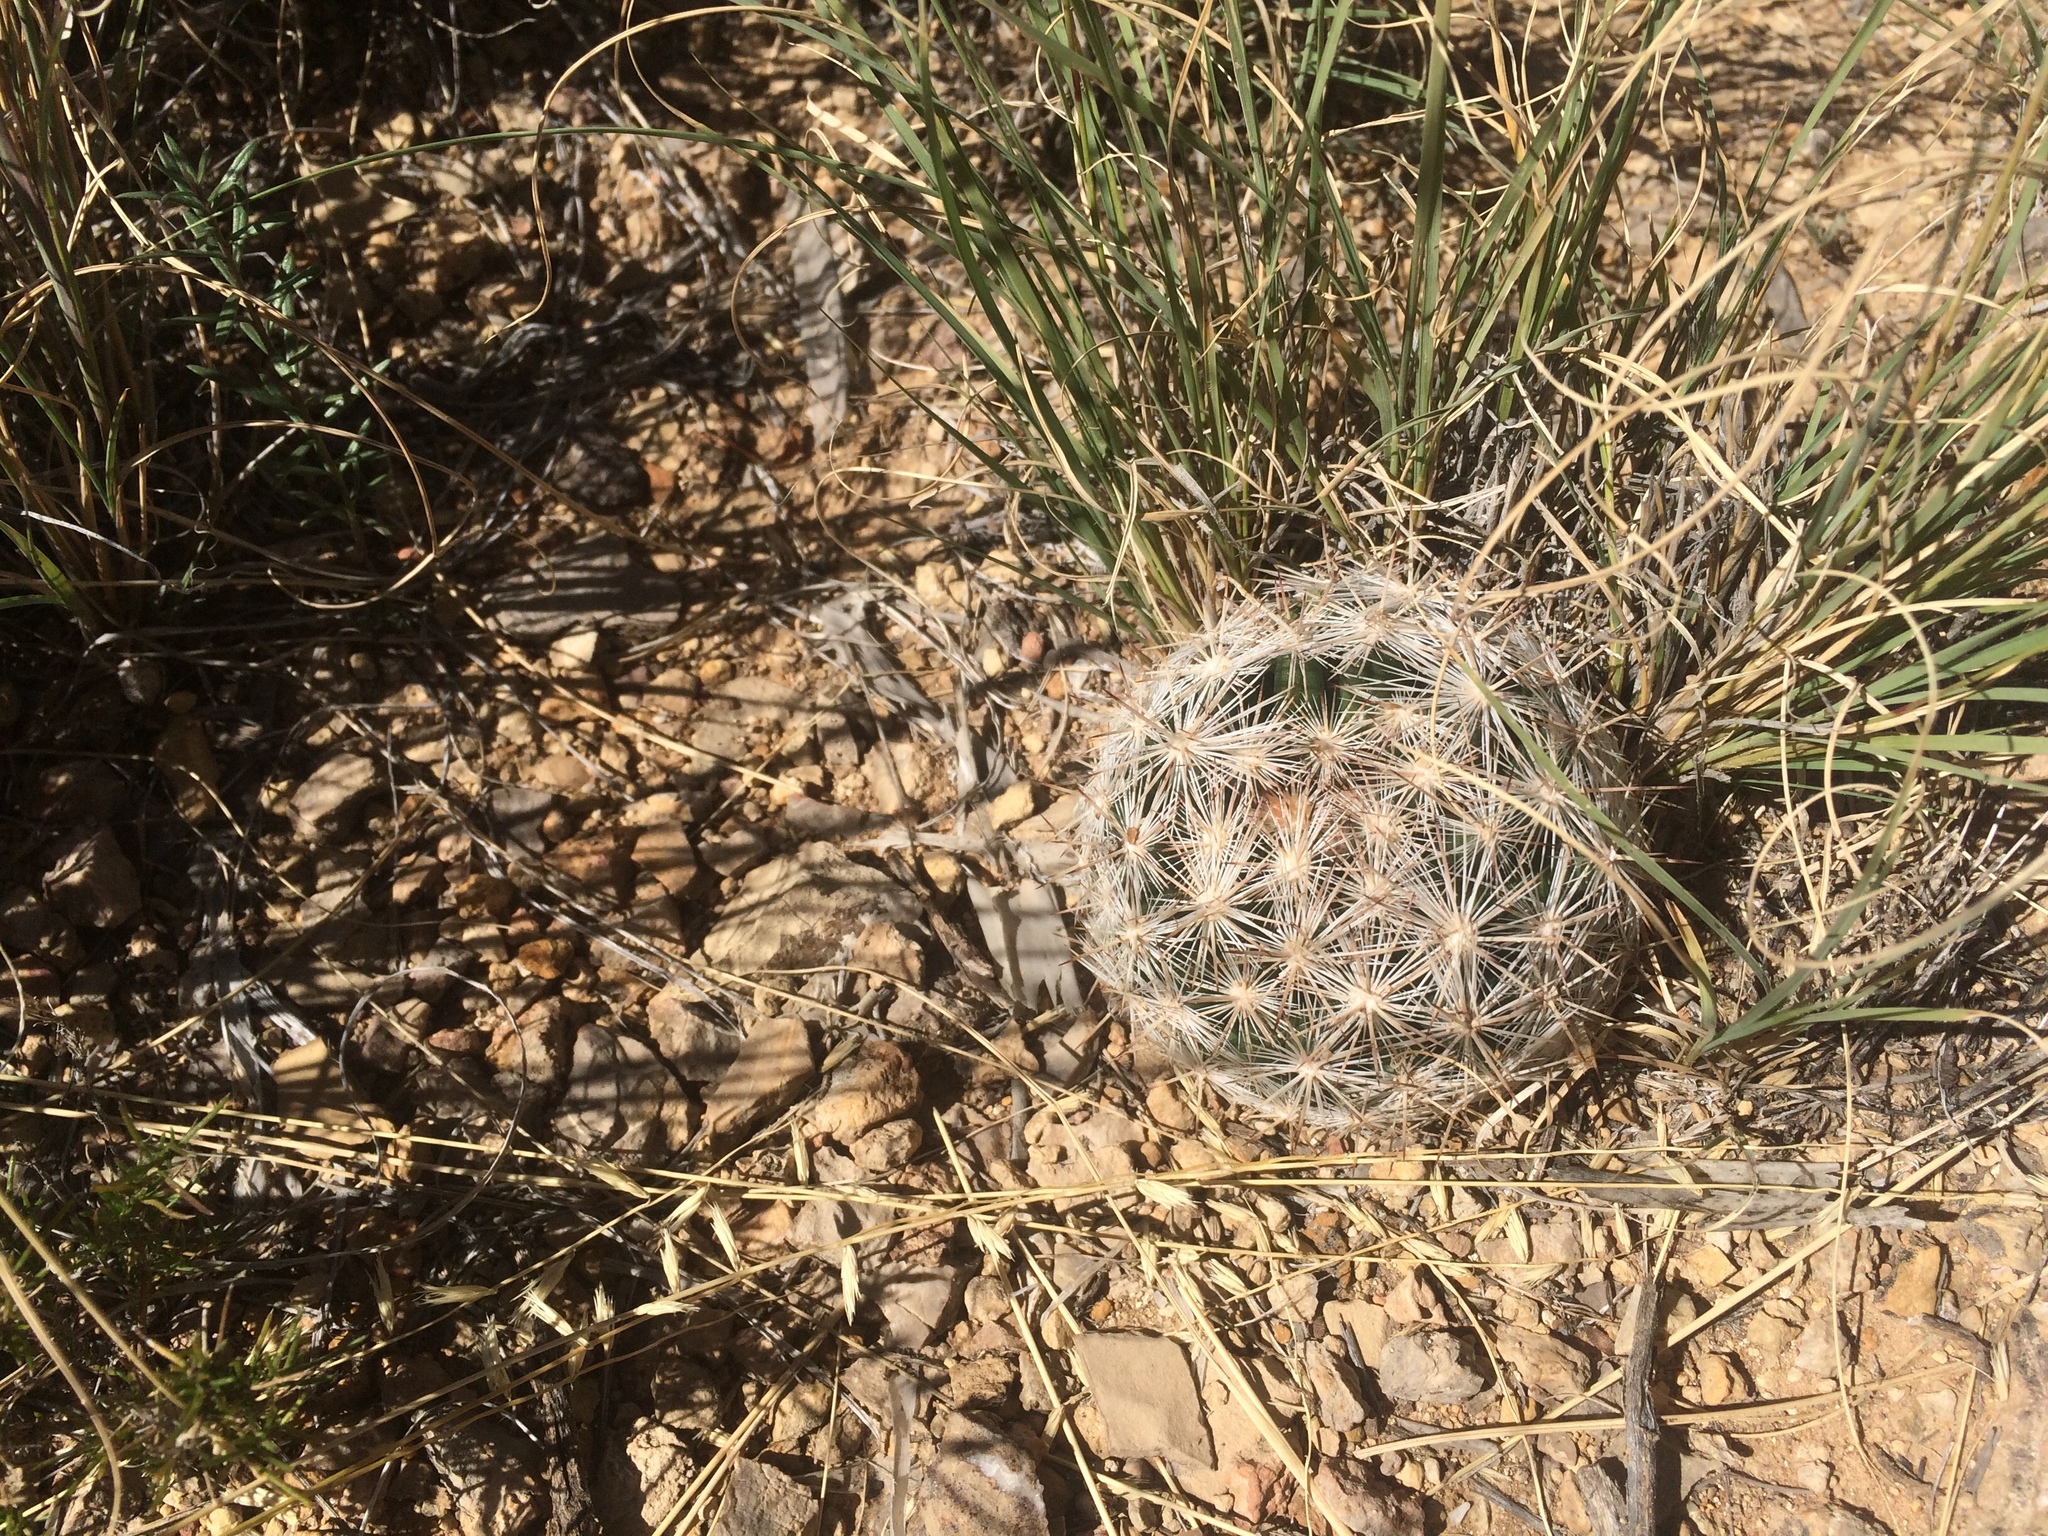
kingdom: Plantae
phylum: Tracheophyta
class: Magnoliopsida
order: Caryophyllales
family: Cactaceae
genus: Pelecyphora
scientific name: Pelecyphora vivipara
